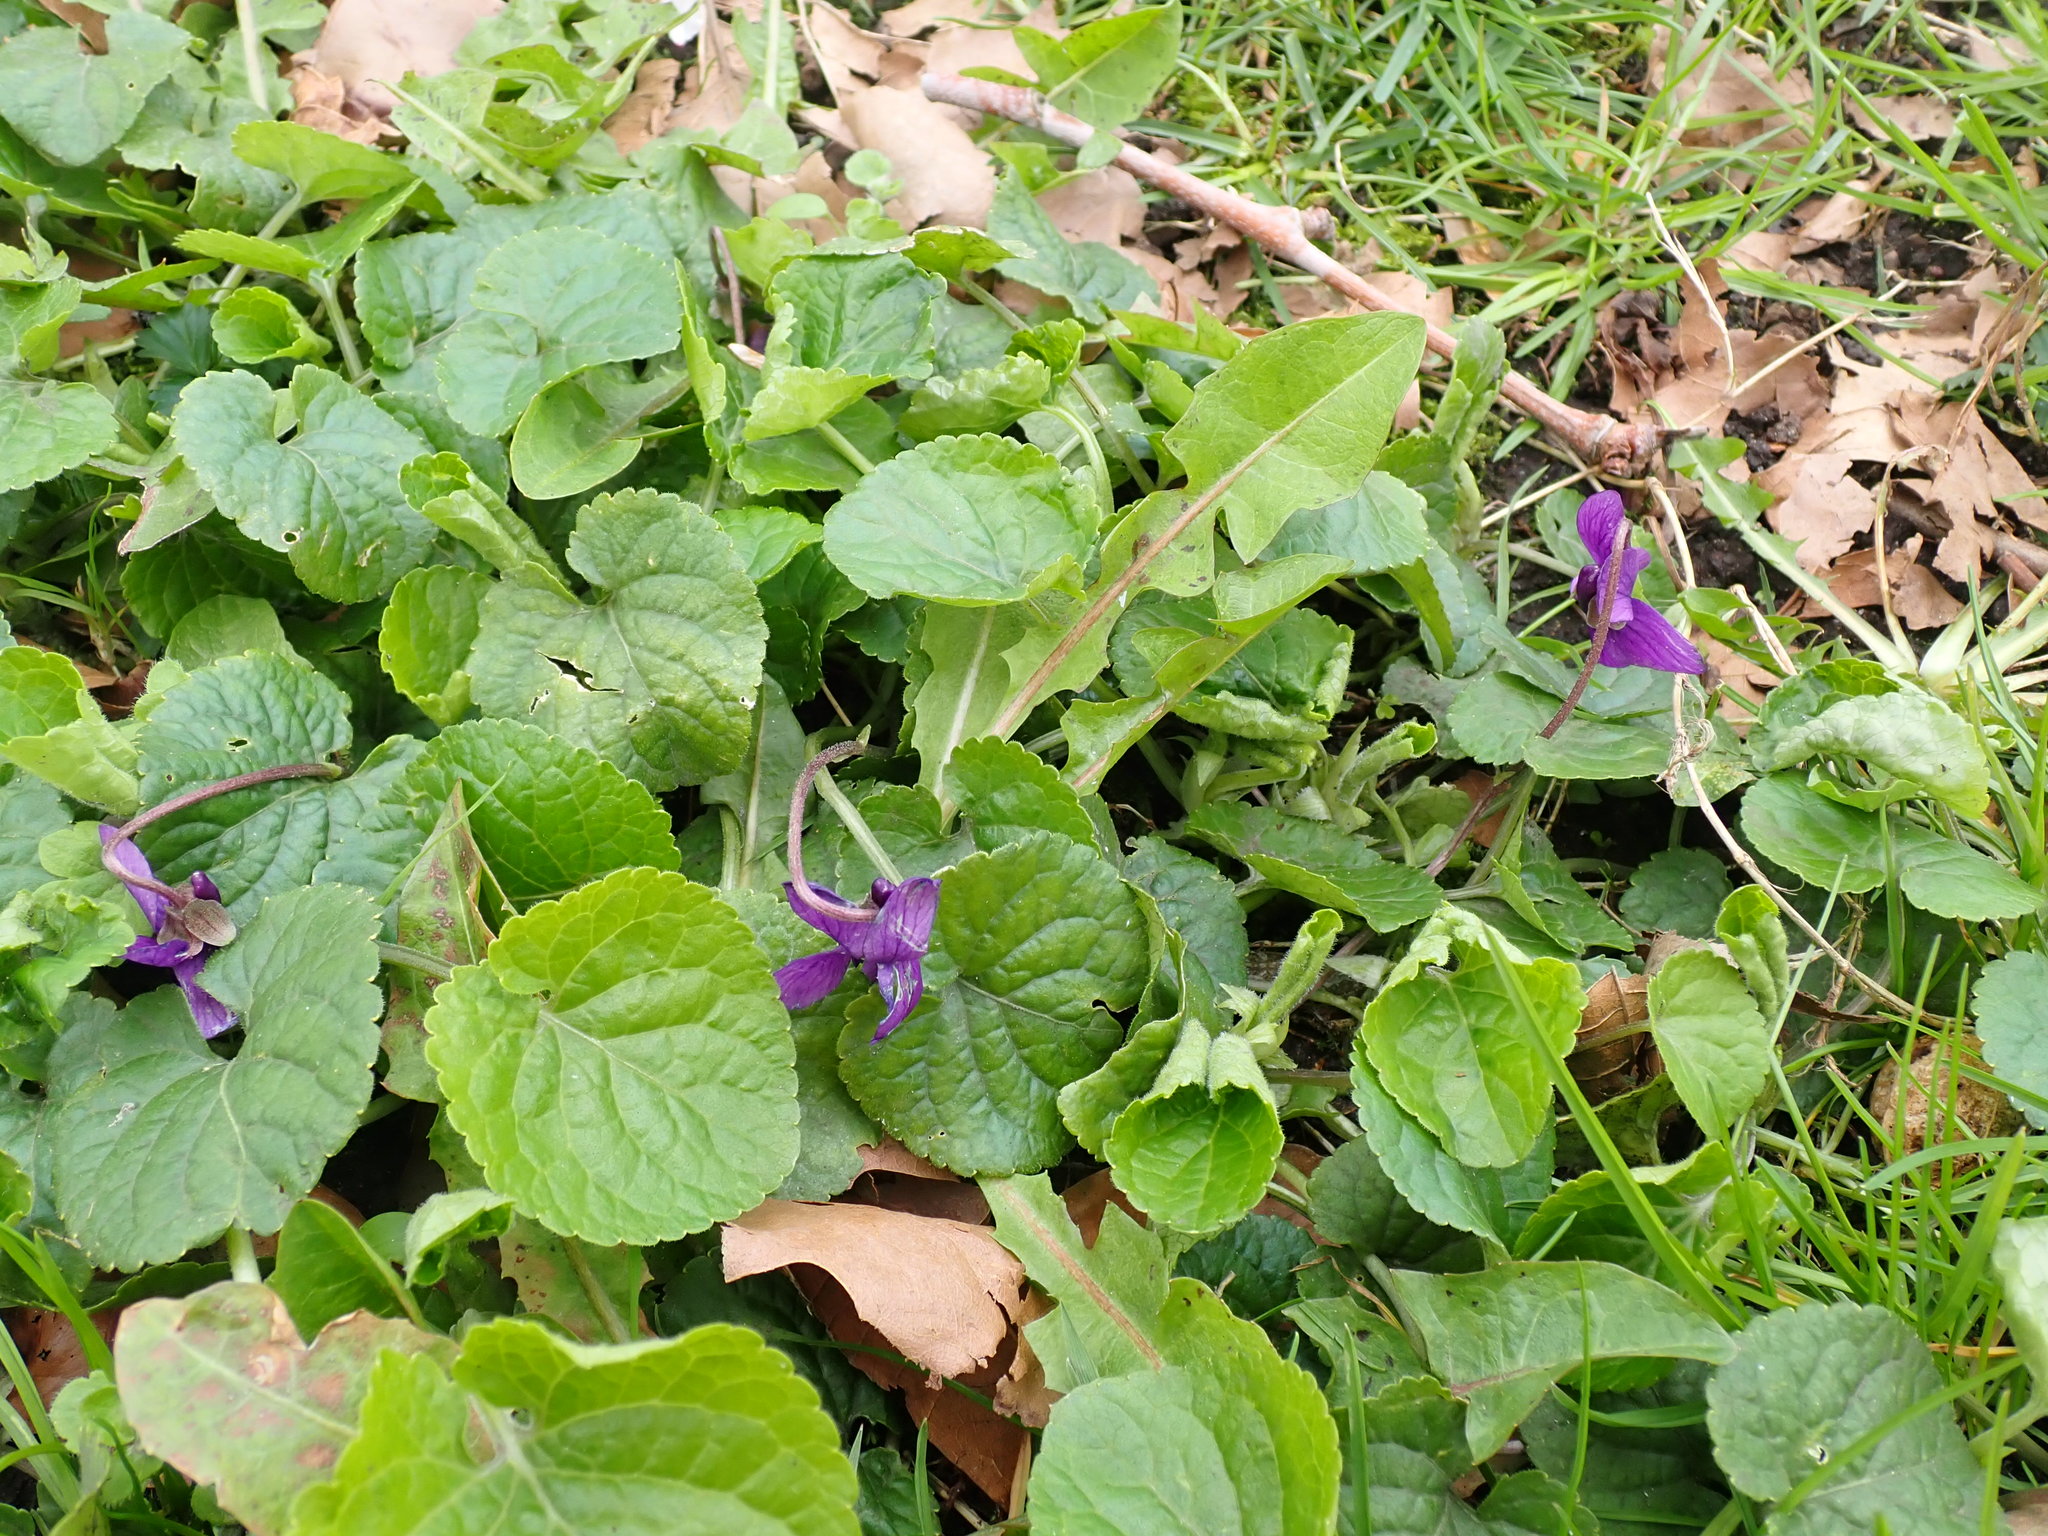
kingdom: Plantae
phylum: Tracheophyta
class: Magnoliopsida
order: Malpighiales
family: Violaceae
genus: Viola
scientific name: Viola odorata
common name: Sweet violet
